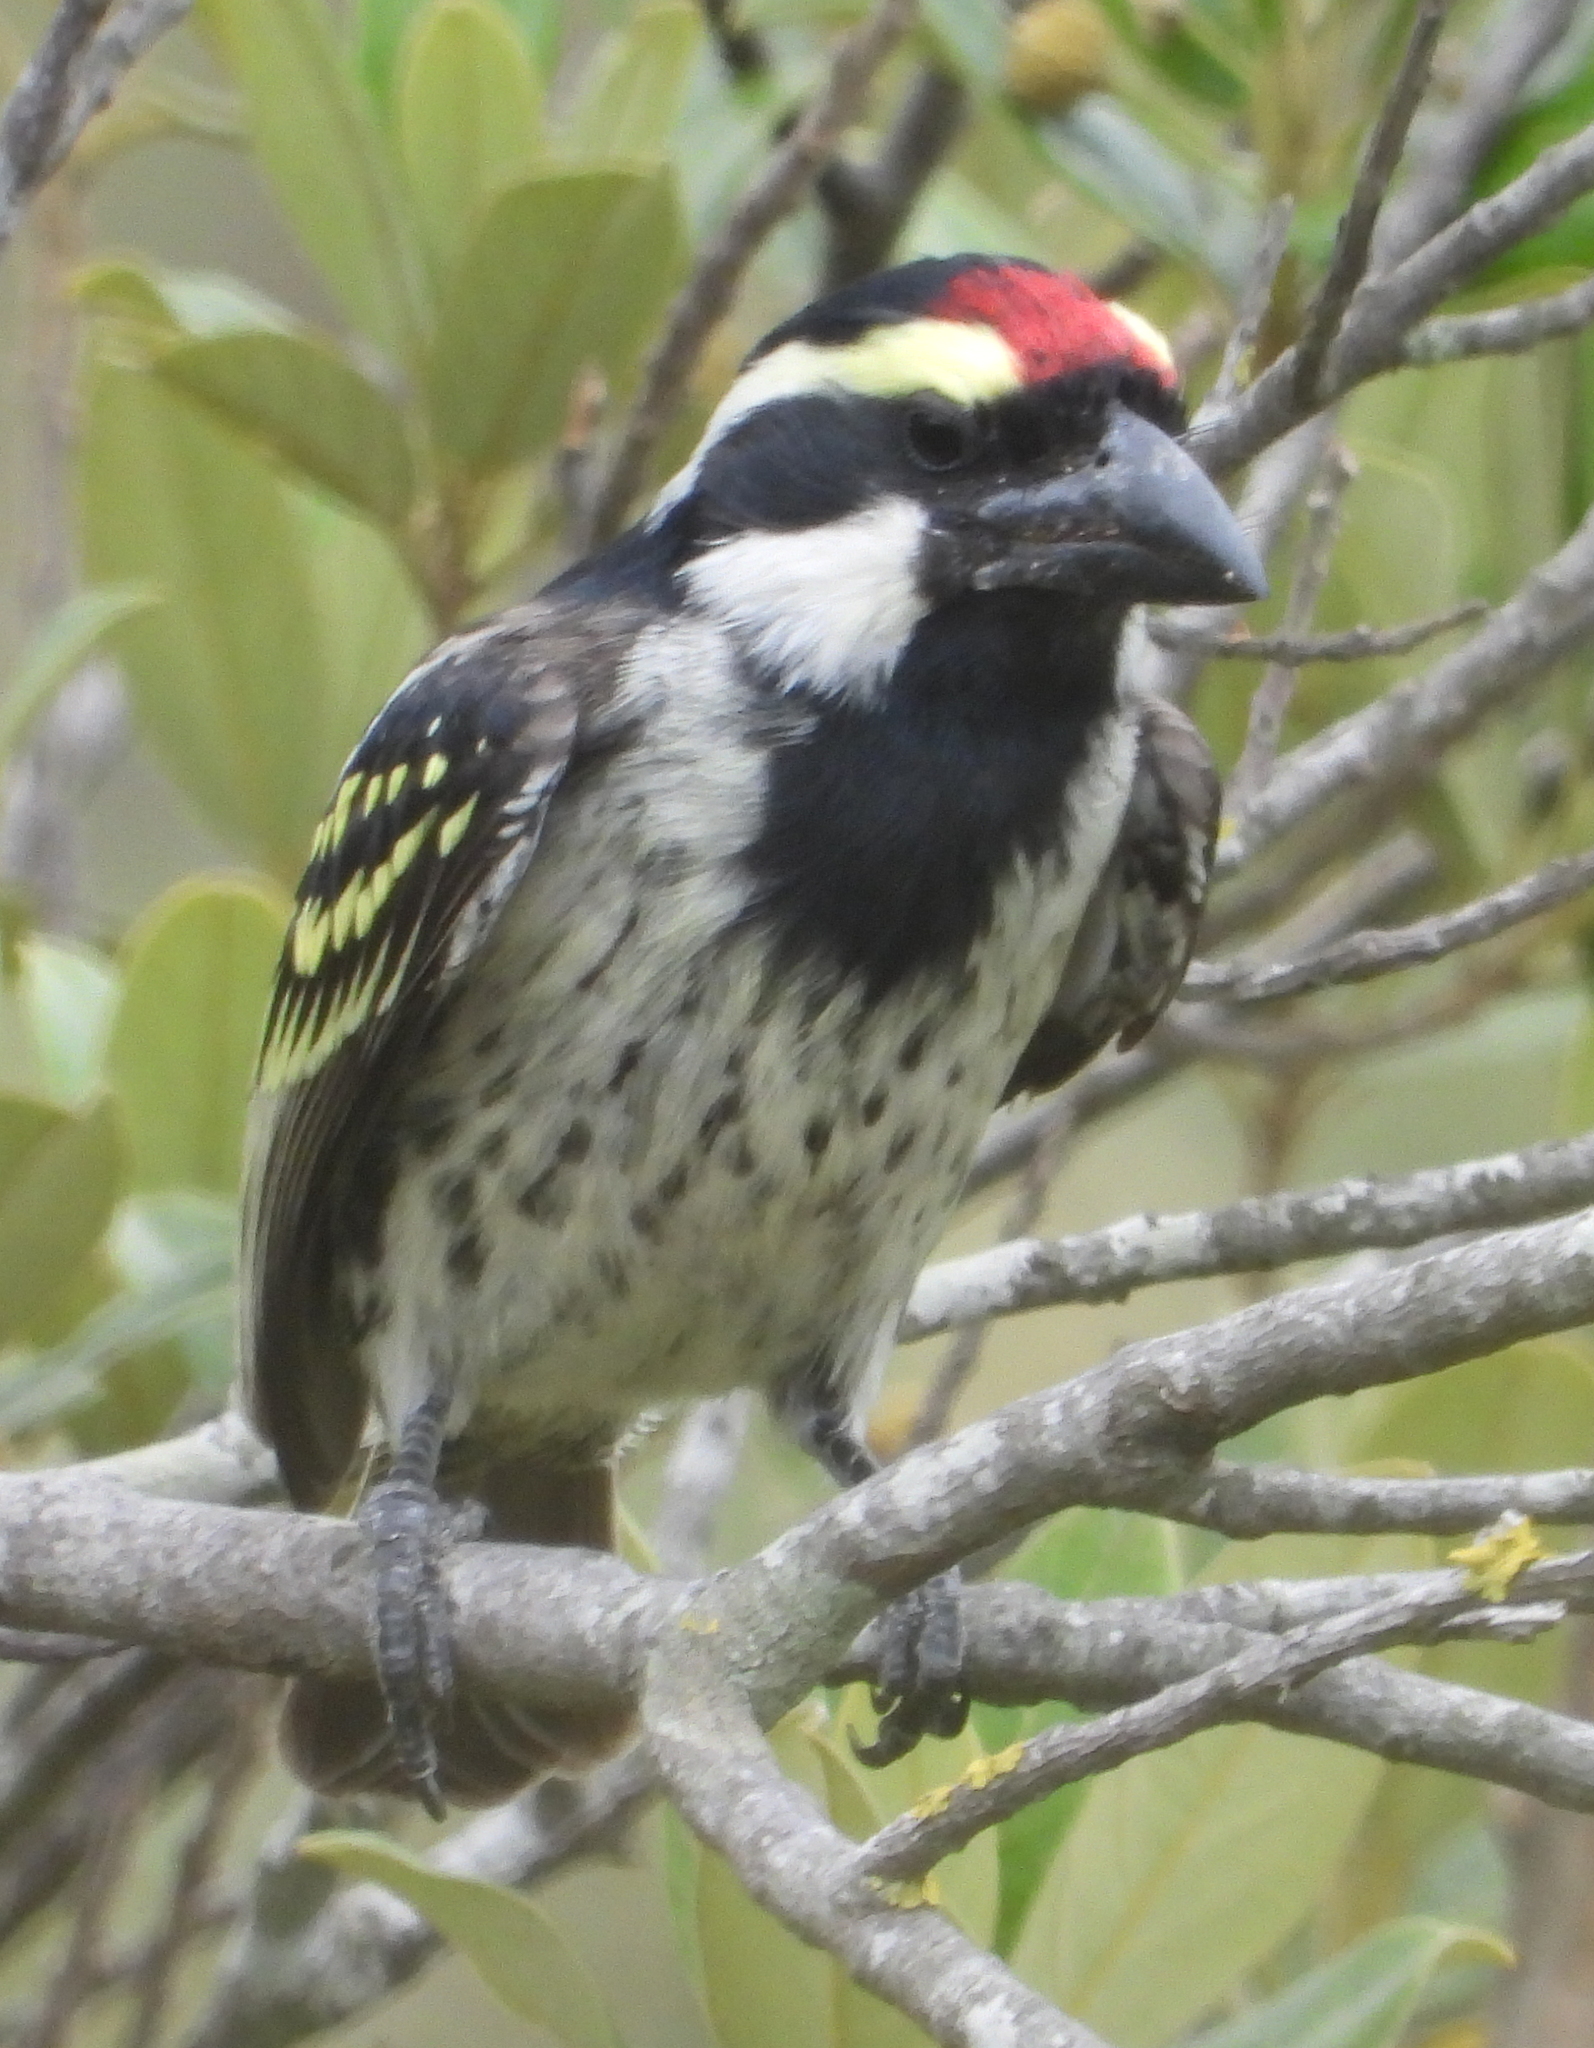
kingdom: Animalia
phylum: Chordata
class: Aves
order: Piciformes
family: Lybiidae
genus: Tricholaema
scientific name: Tricholaema leucomelas
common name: Acacia pied barbet
